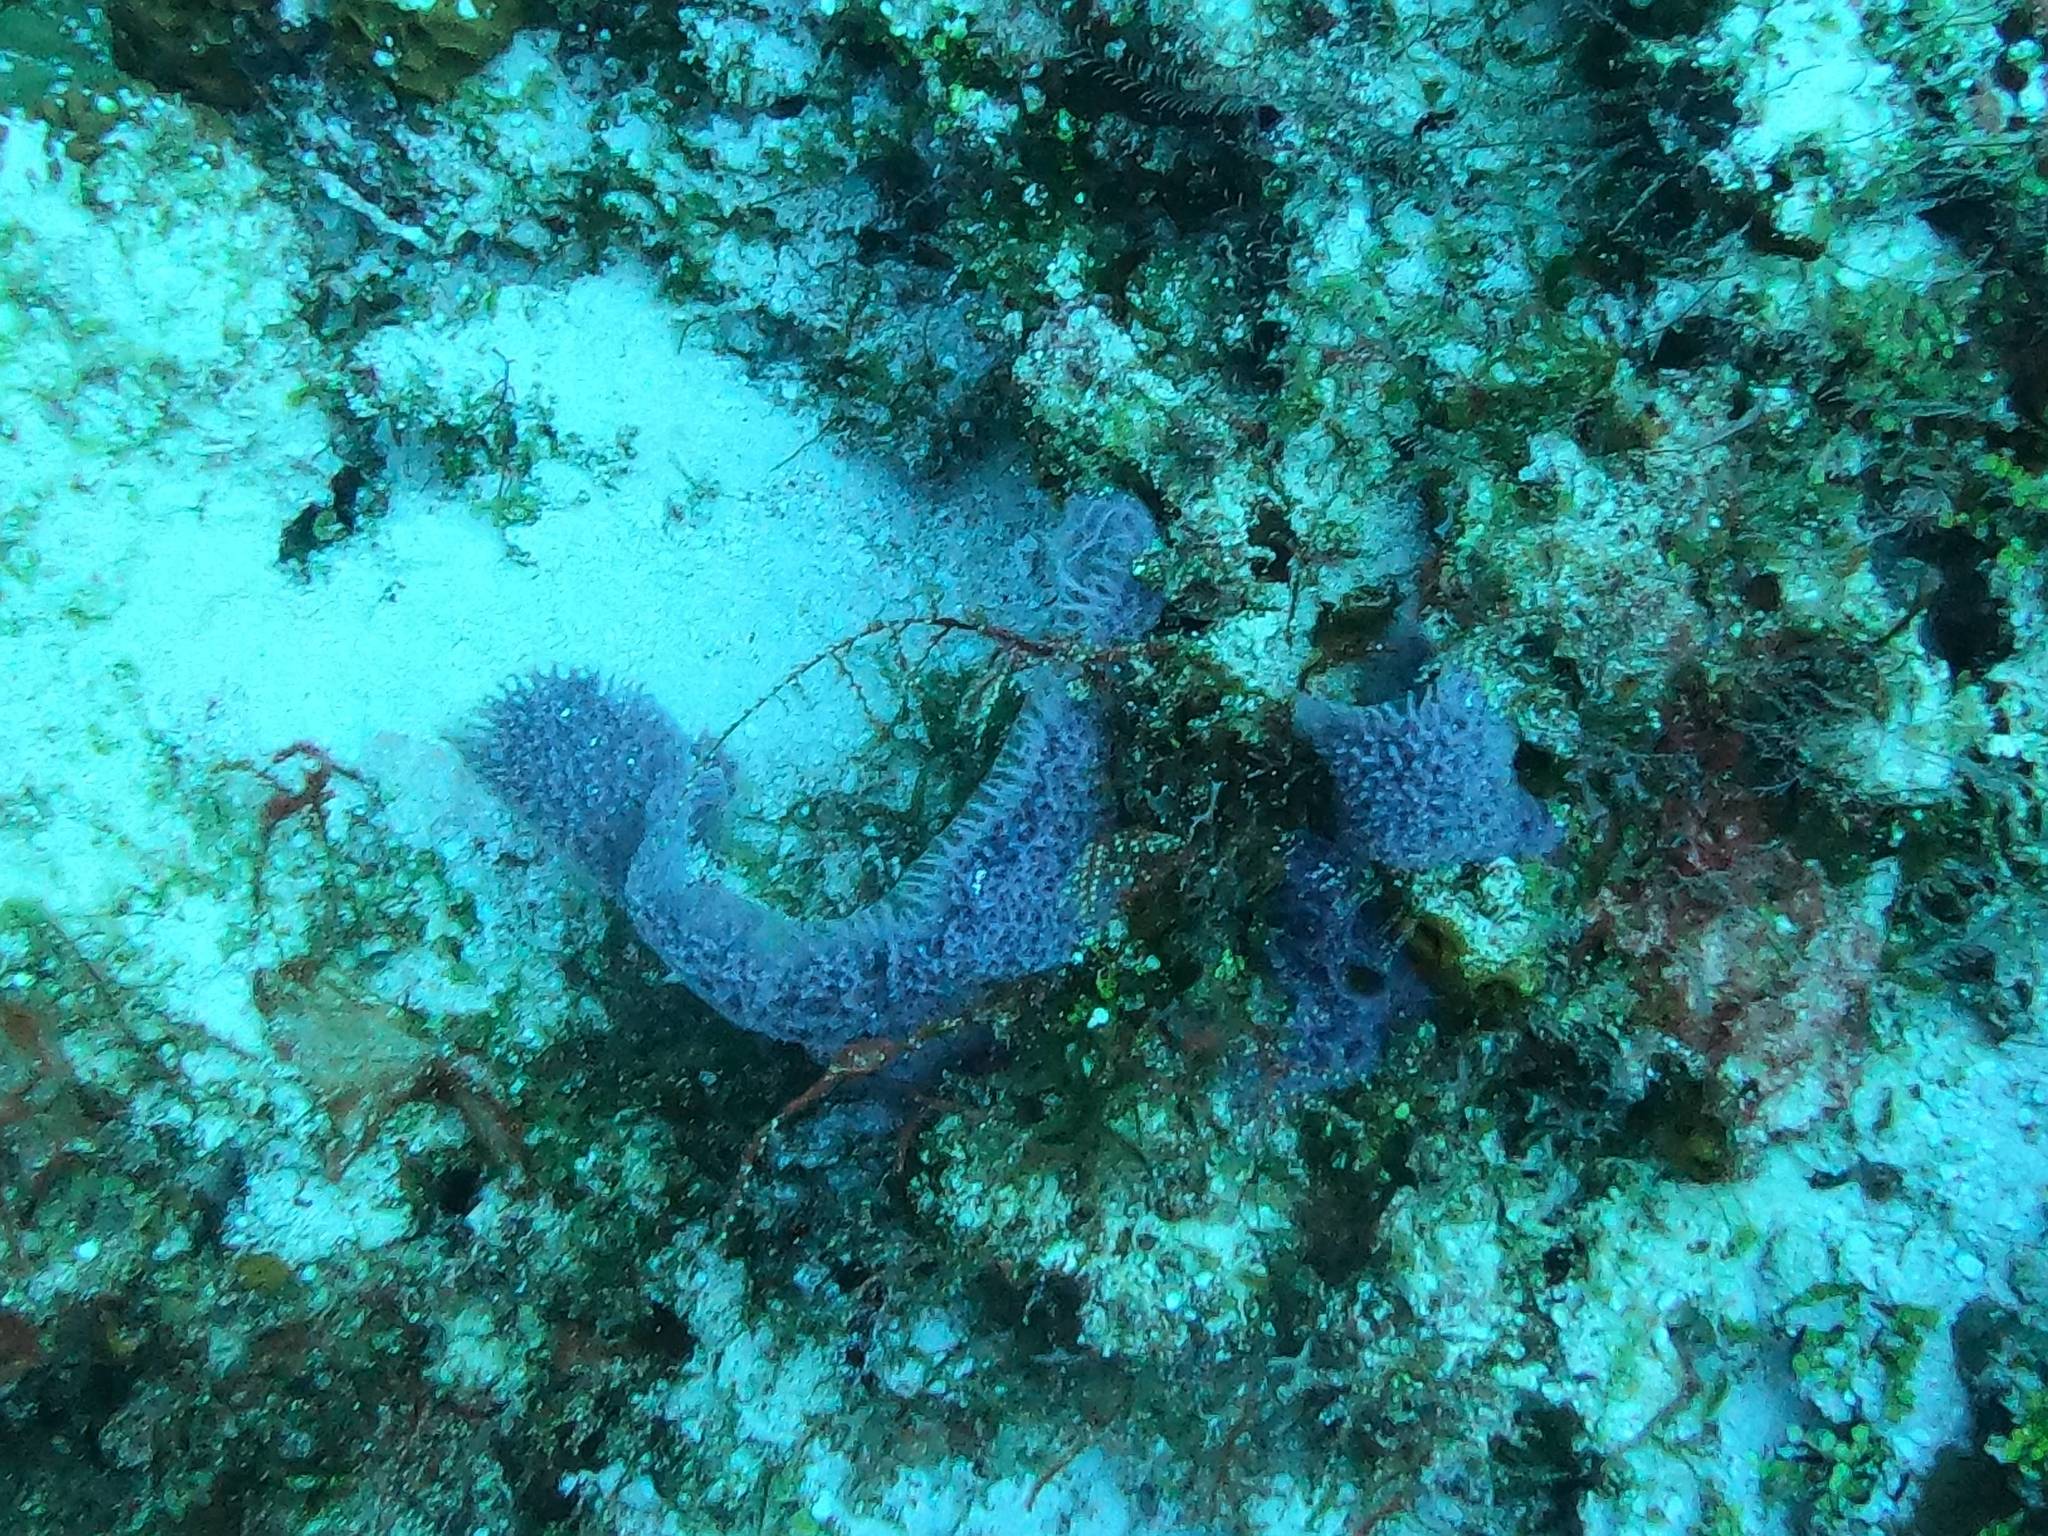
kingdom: Animalia
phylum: Porifera
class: Demospongiae
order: Haplosclerida
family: Niphatidae
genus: Niphates
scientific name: Niphates digitalis
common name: Pink vase sponge
